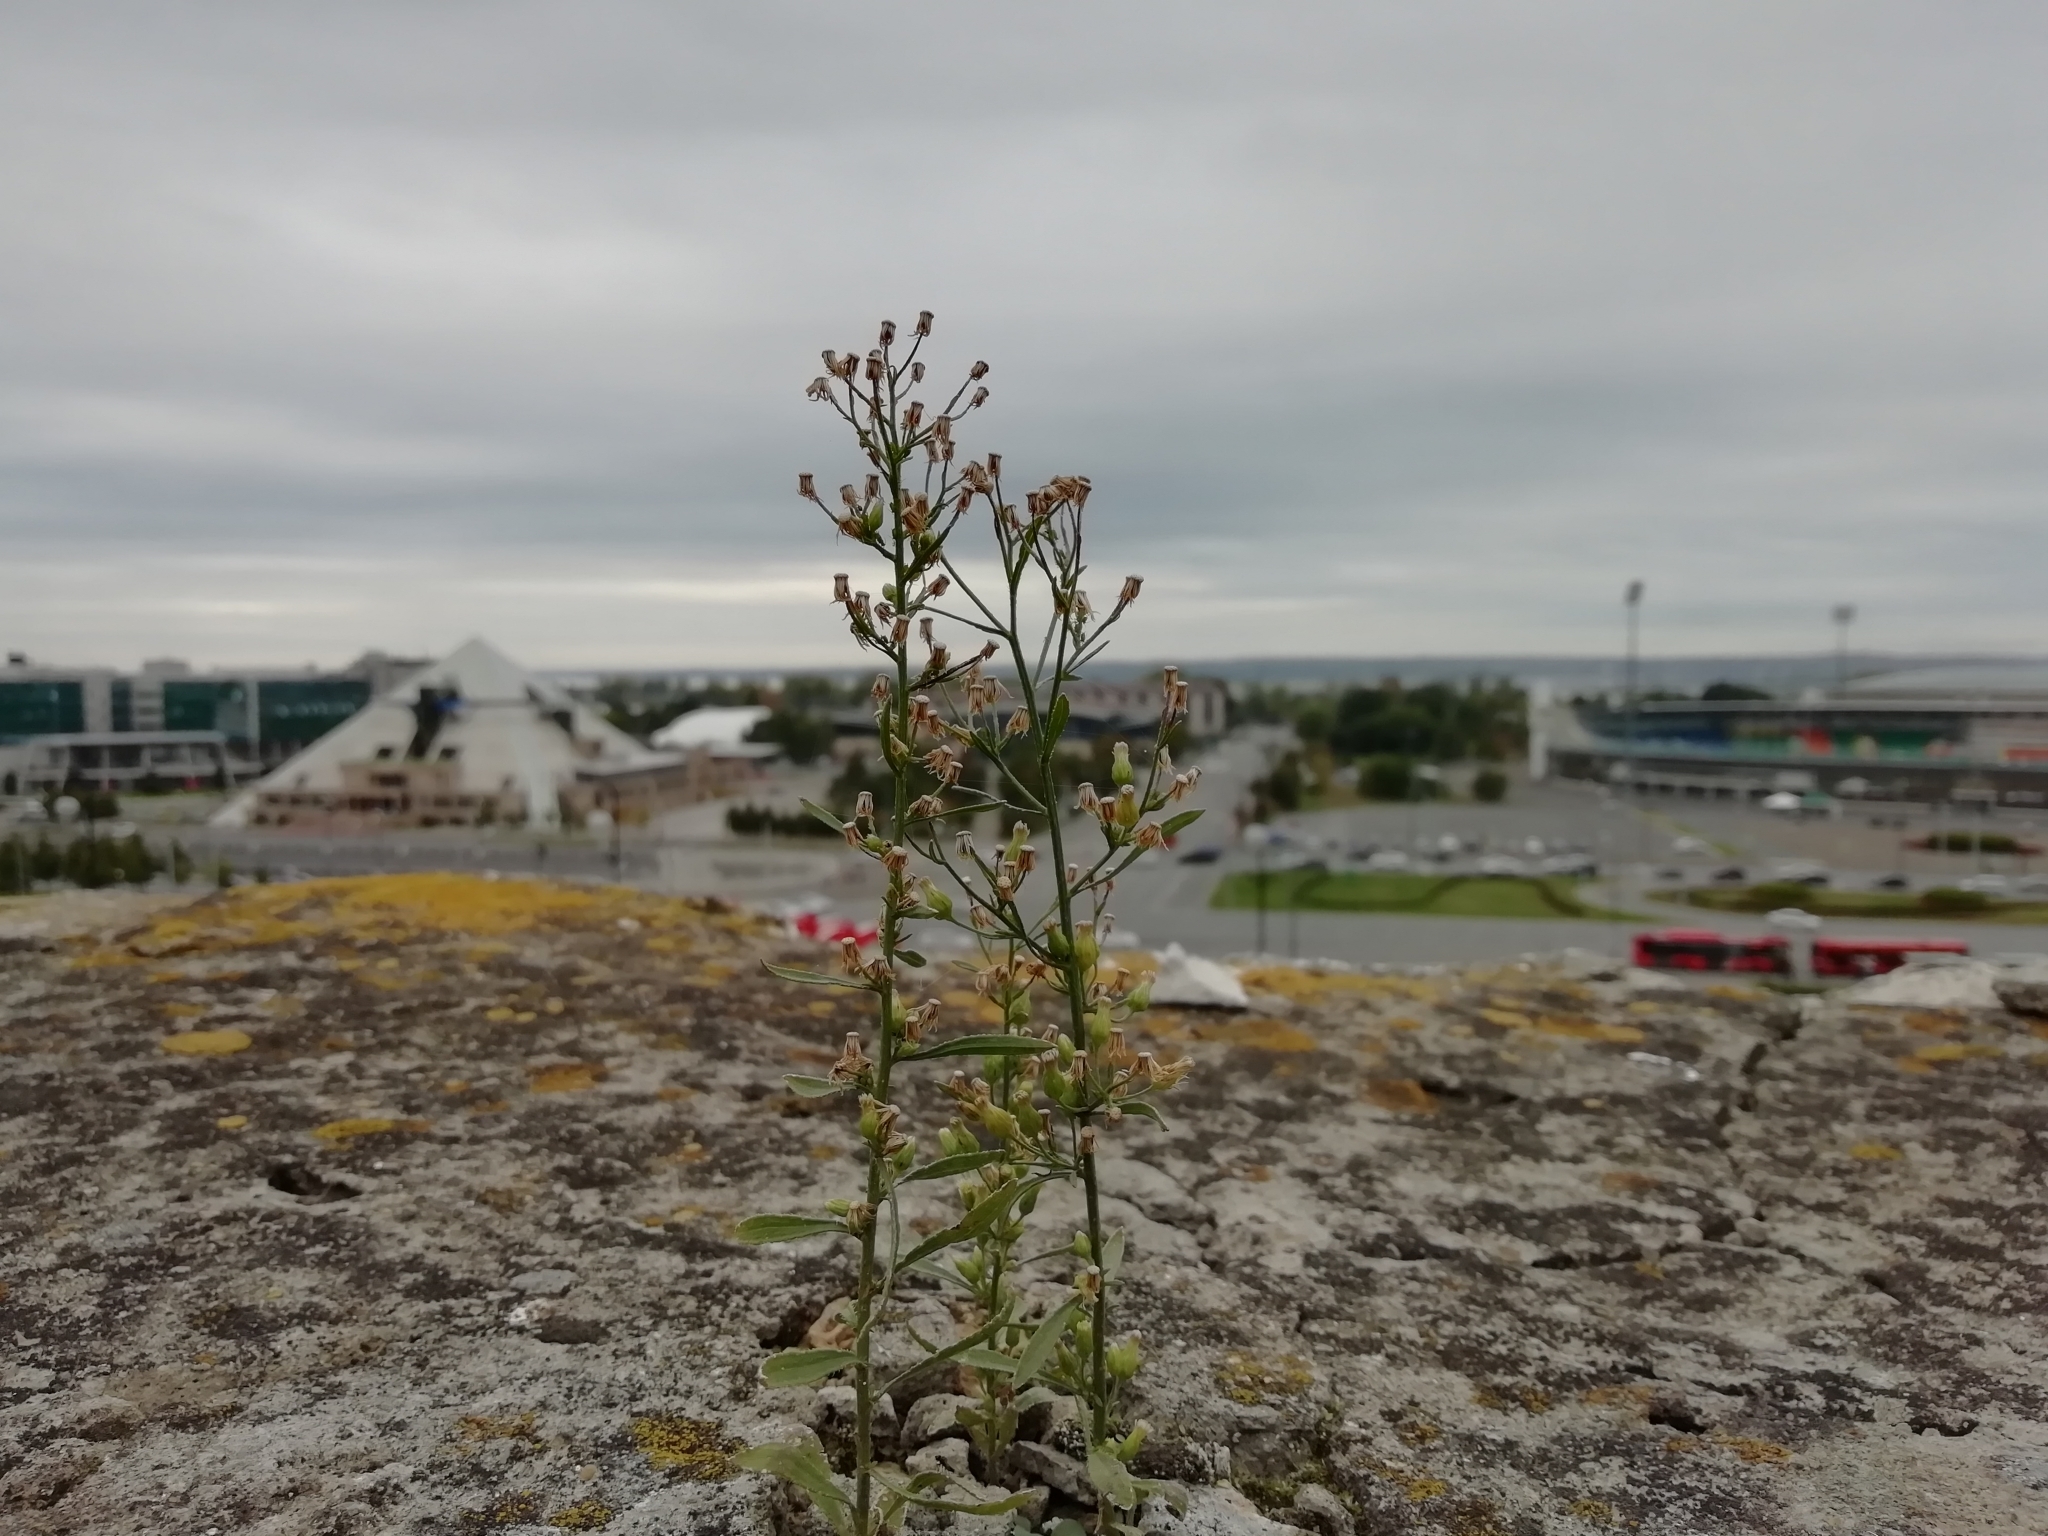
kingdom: Plantae
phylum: Tracheophyta
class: Magnoliopsida
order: Asterales
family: Asteraceae
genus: Erigeron
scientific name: Erigeron canadensis
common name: Canadian fleabane
